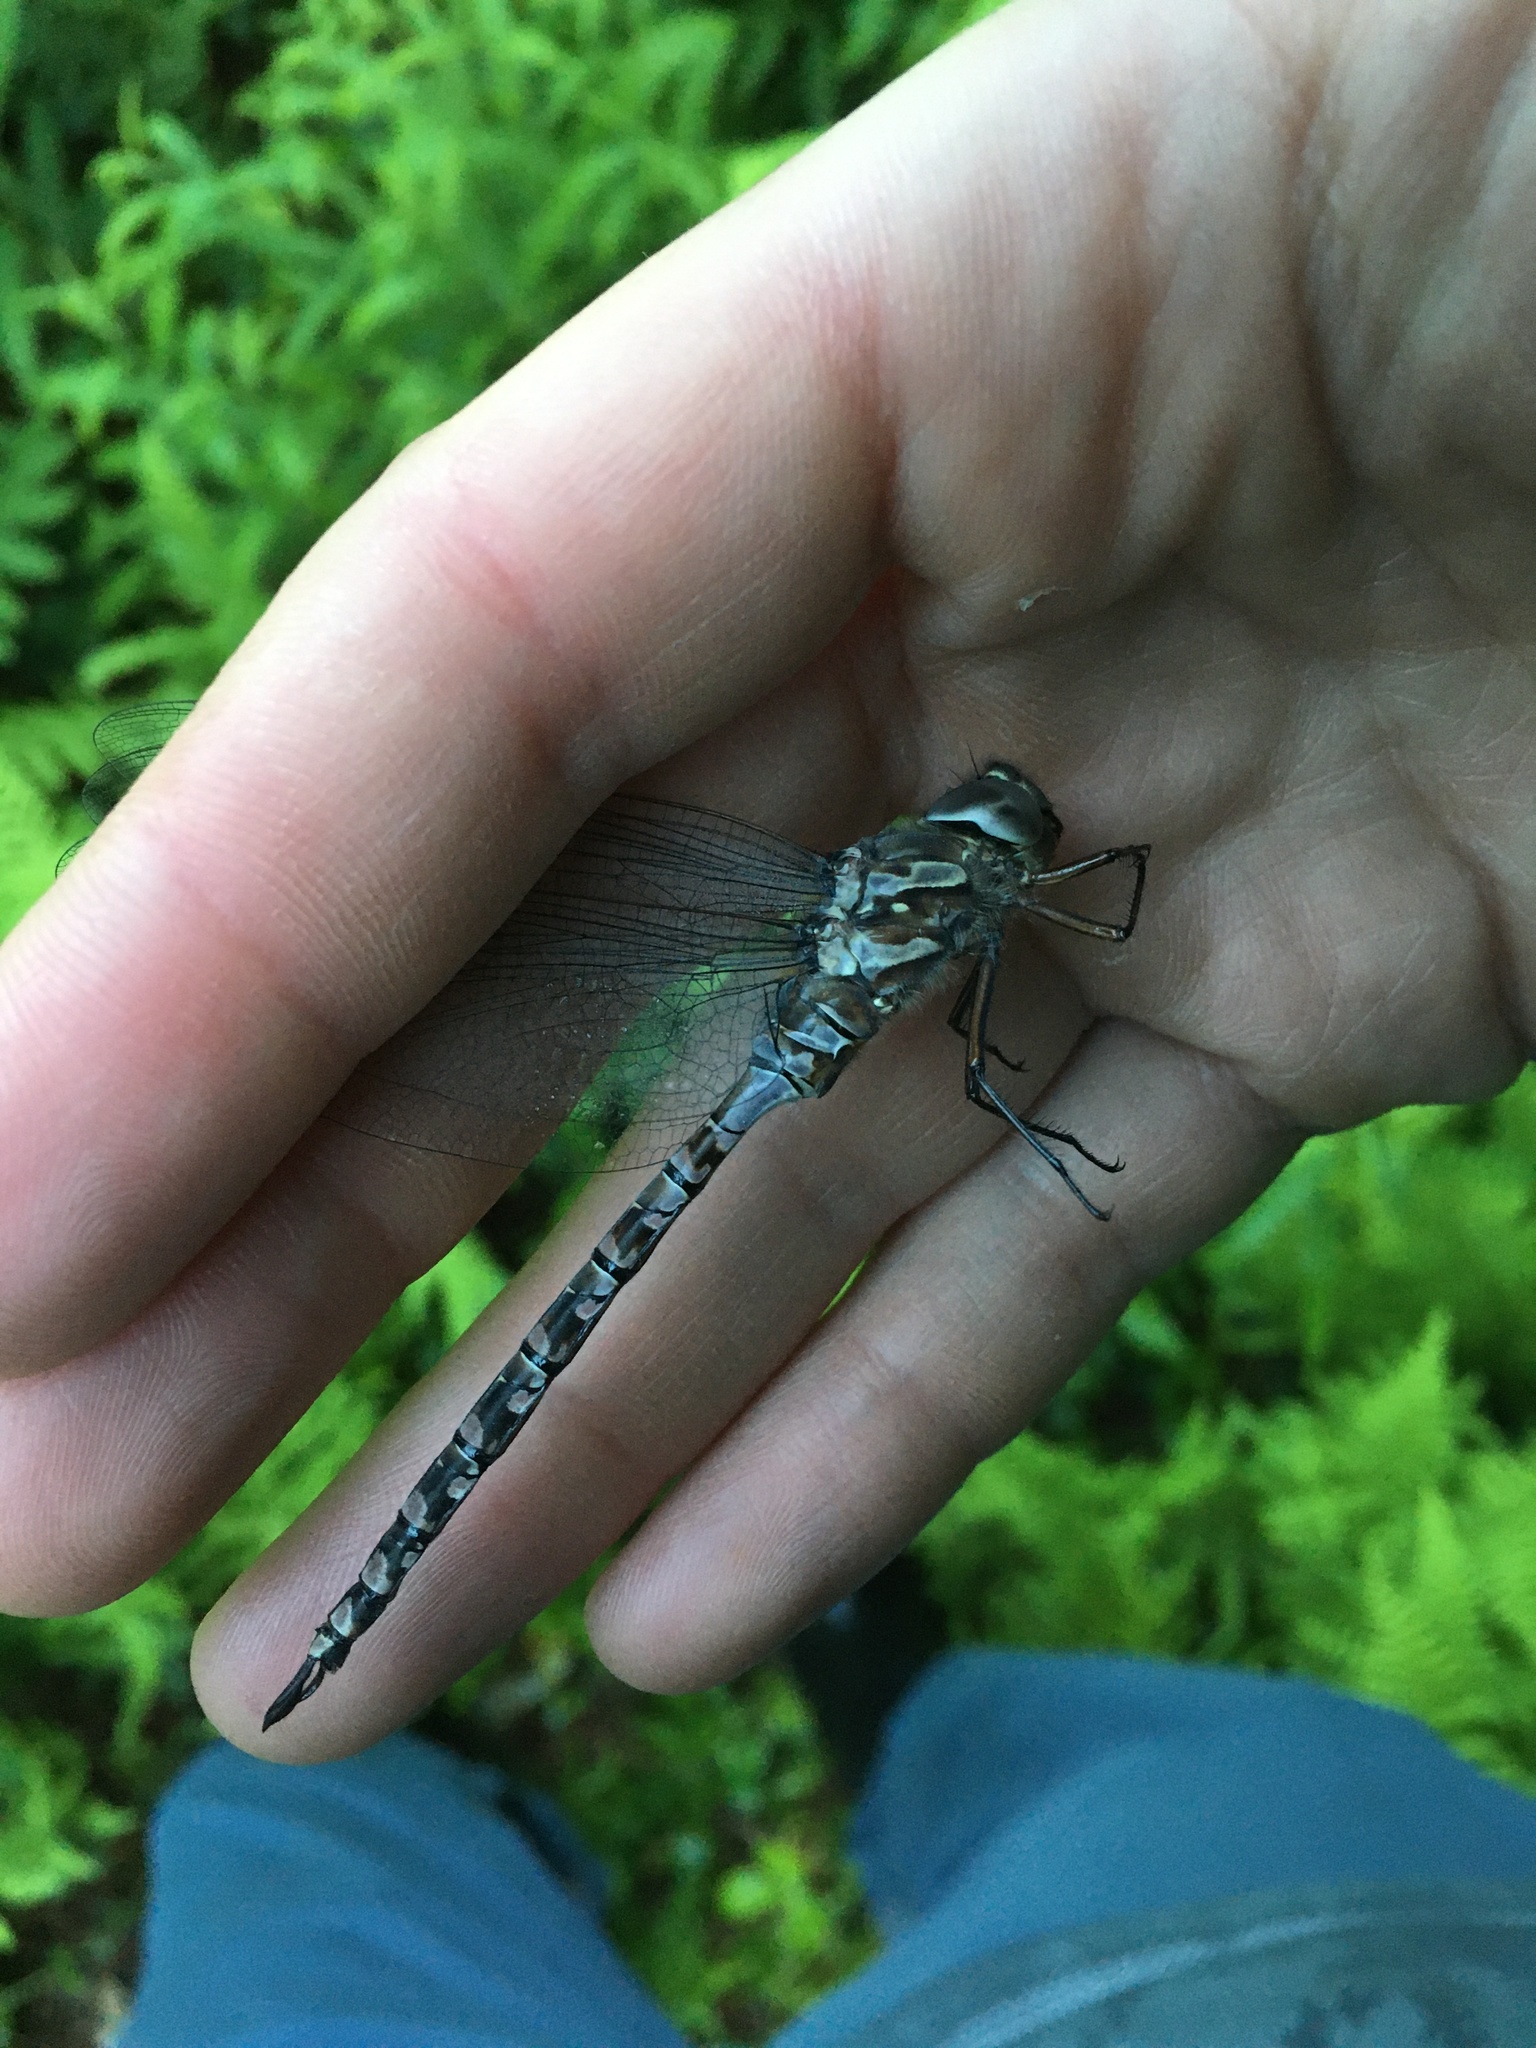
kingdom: Animalia
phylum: Arthropoda
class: Insecta
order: Odonata
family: Aeshnidae
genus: Aeshna
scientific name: Aeshna canadensis
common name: Canada darner
